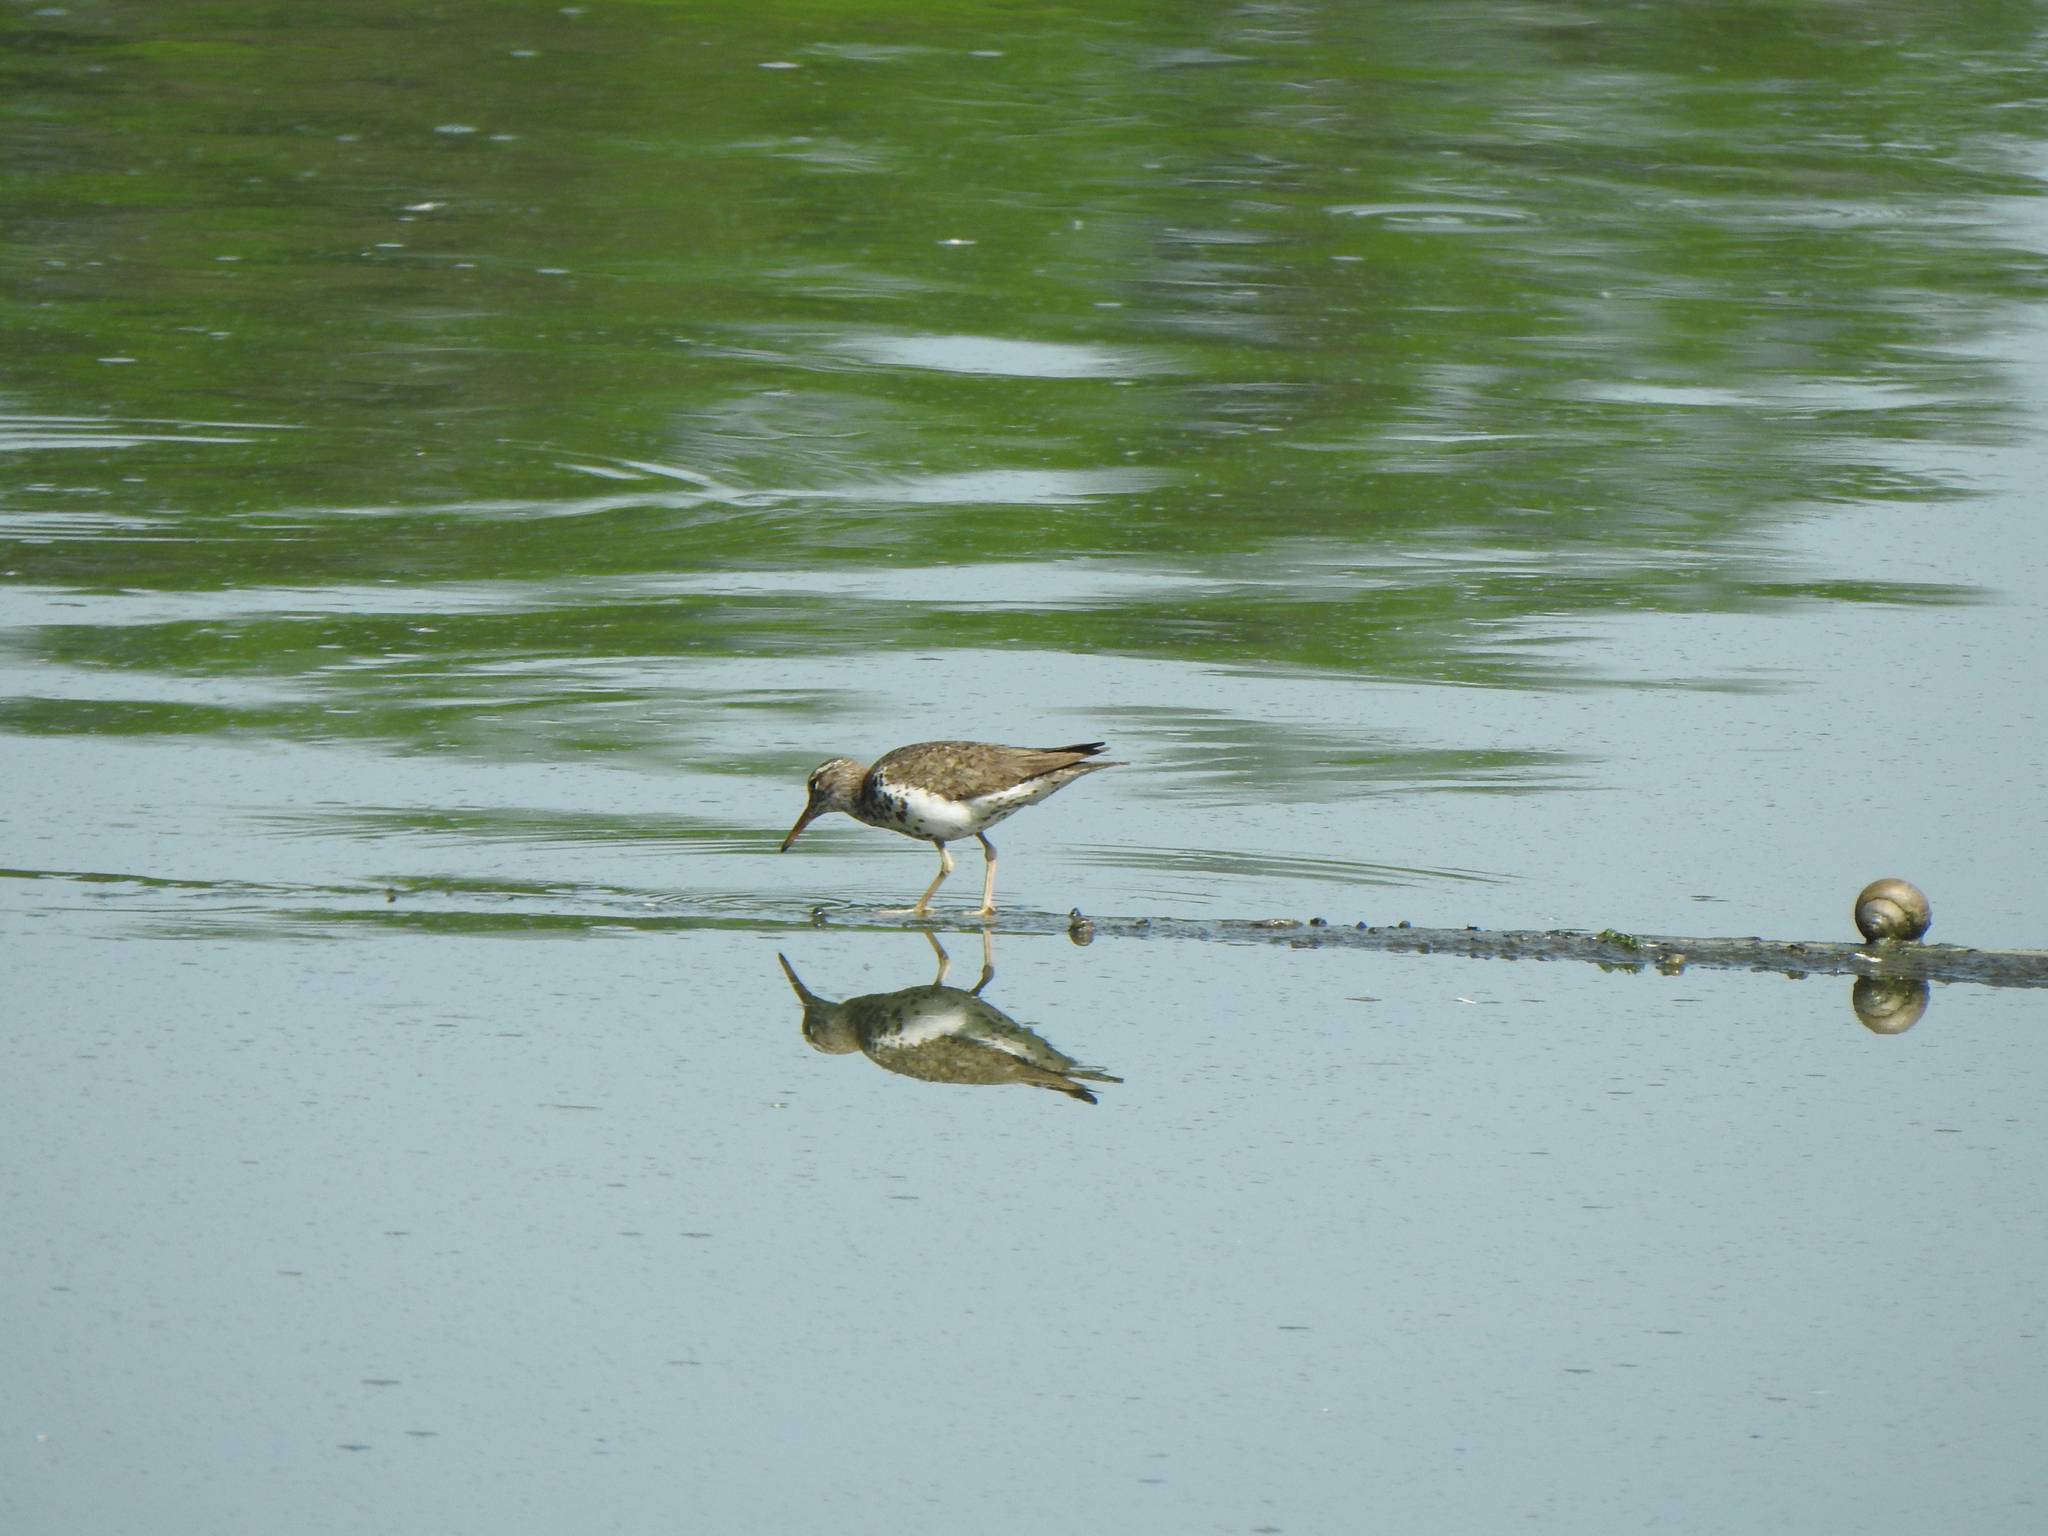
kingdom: Animalia
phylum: Chordata
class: Aves
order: Charadriiformes
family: Scolopacidae
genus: Actitis
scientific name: Actitis macularius
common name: Spotted sandpiper
